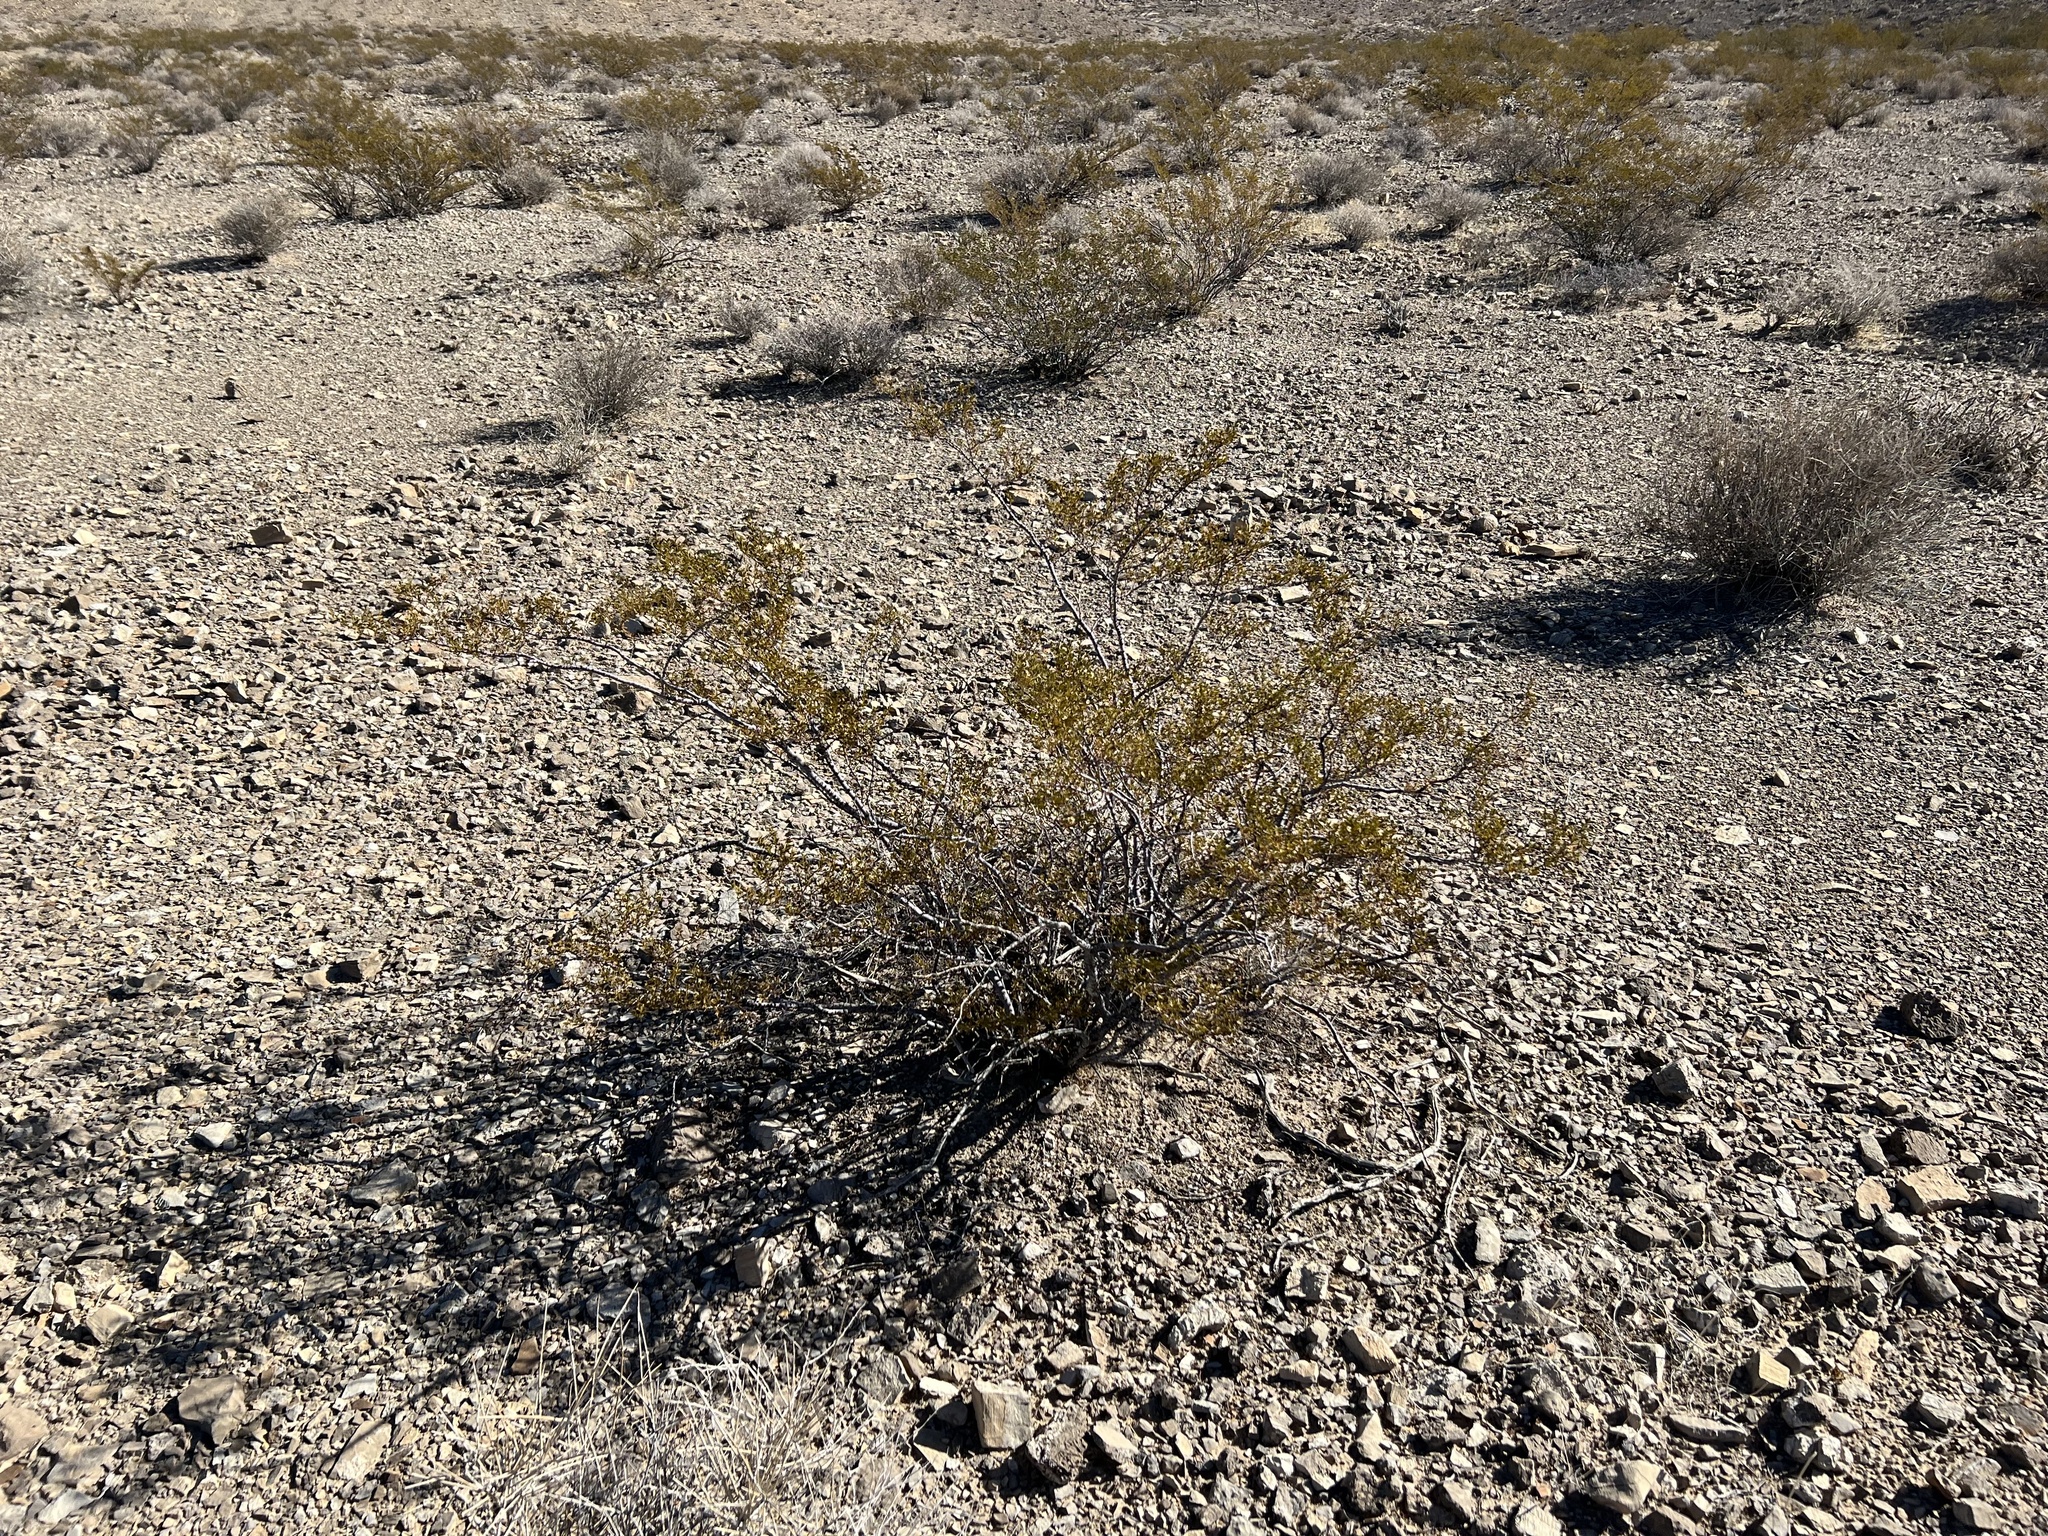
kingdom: Plantae
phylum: Tracheophyta
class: Magnoliopsida
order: Zygophyllales
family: Zygophyllaceae
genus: Larrea
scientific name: Larrea tridentata
